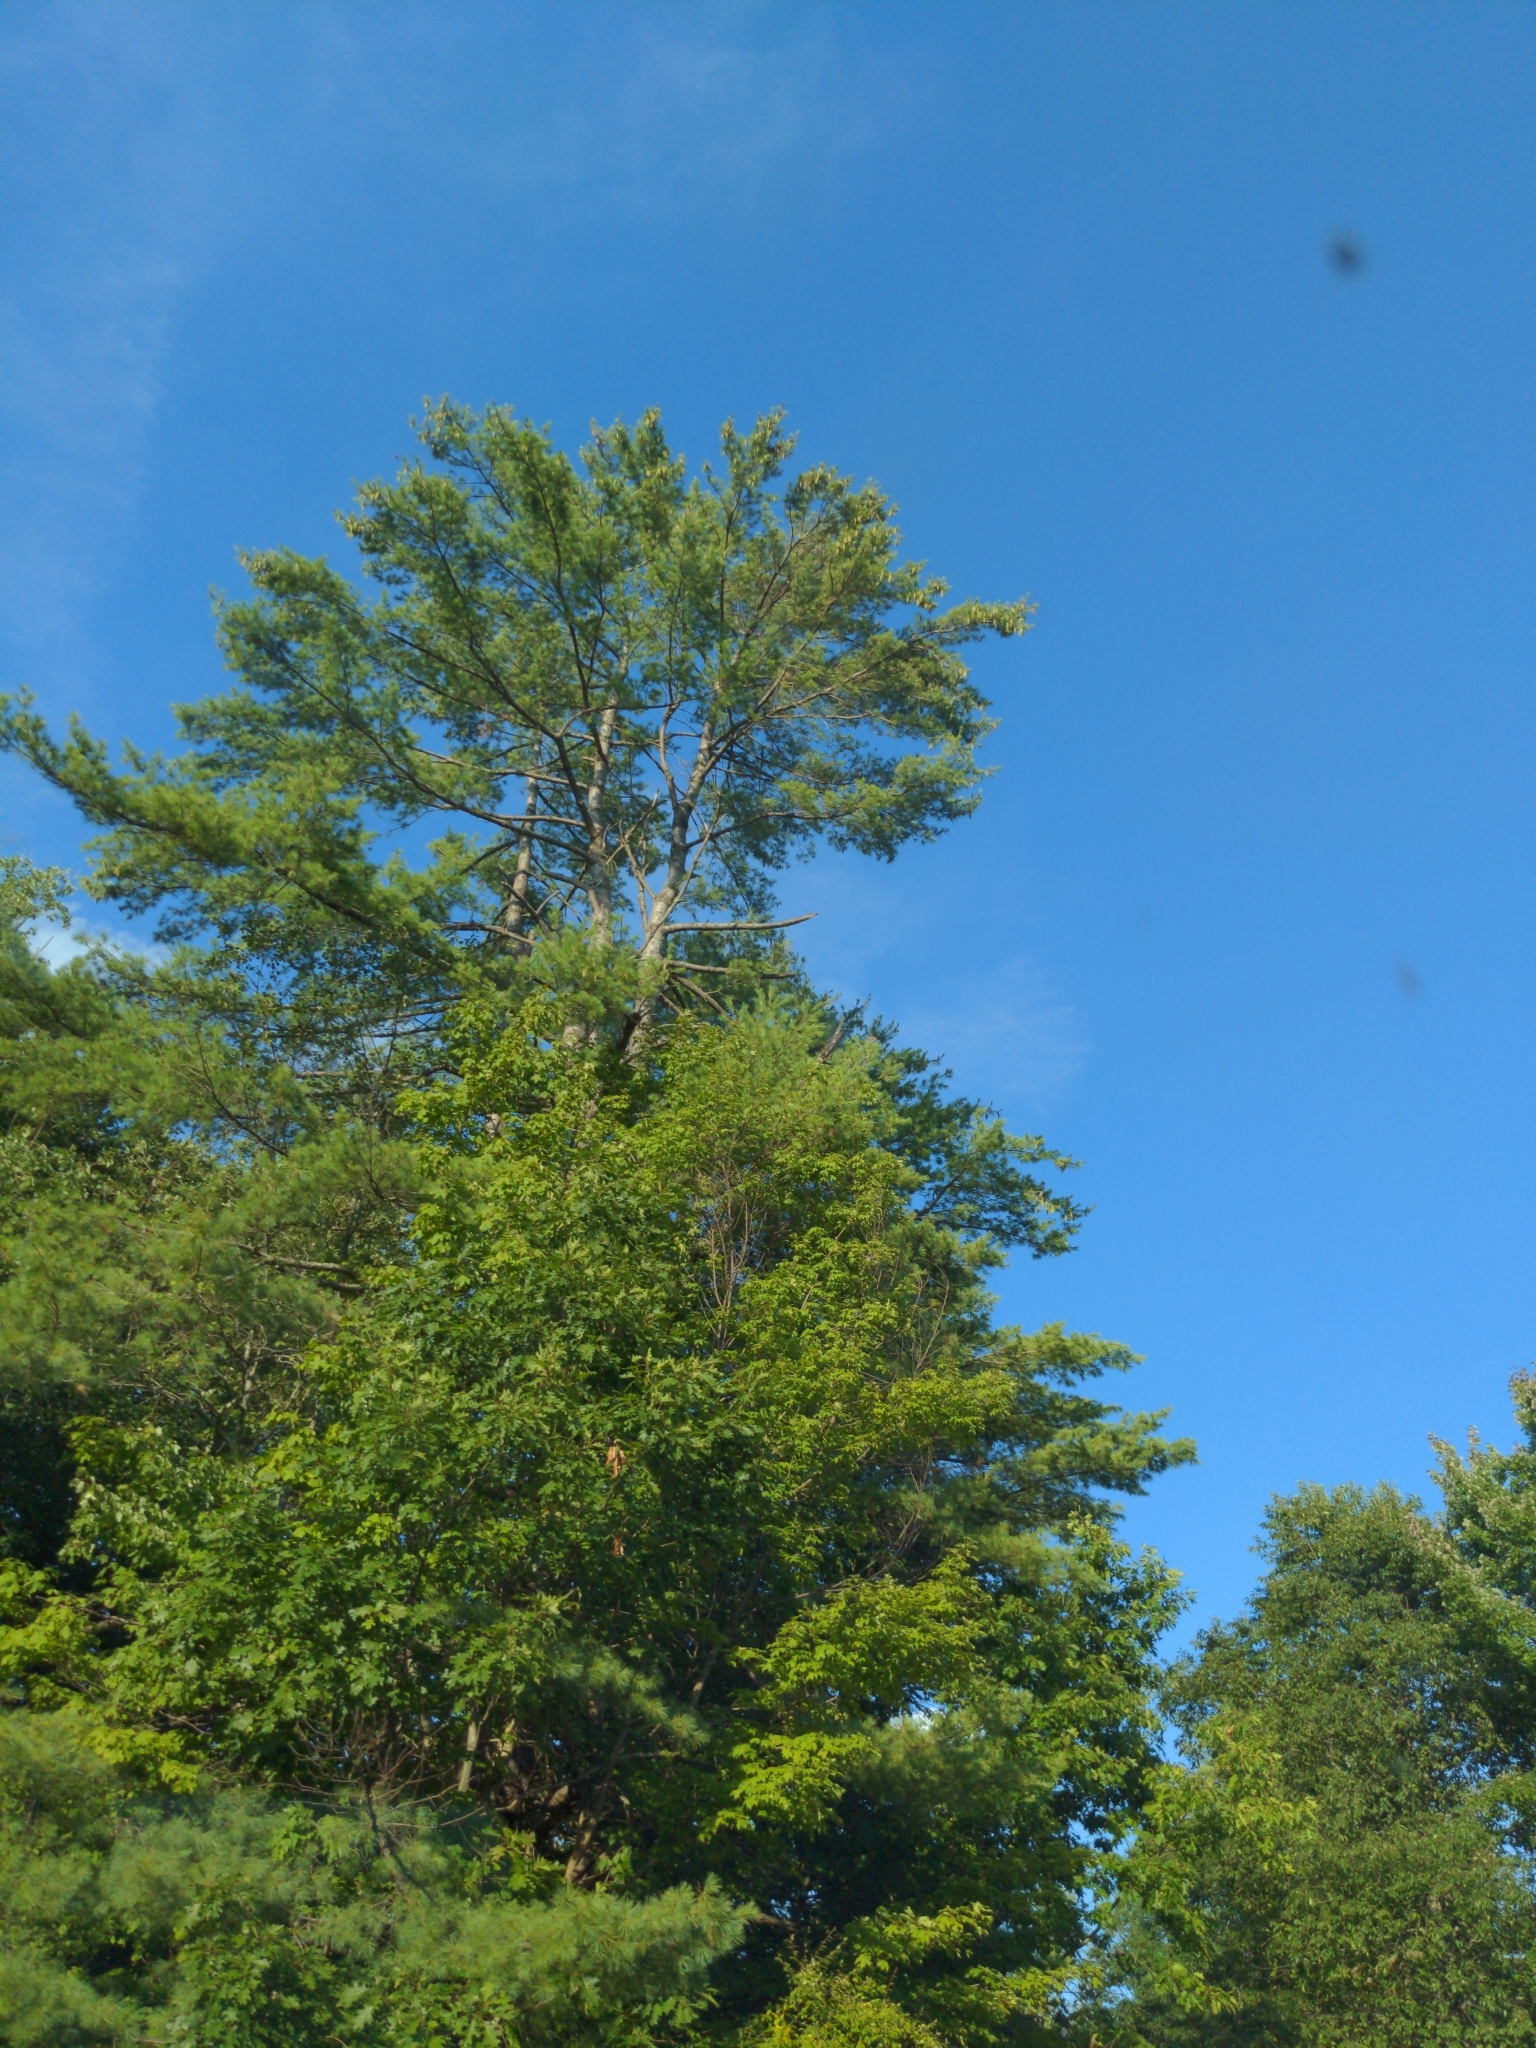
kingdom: Plantae
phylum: Tracheophyta
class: Pinopsida
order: Pinales
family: Pinaceae
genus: Pinus
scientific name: Pinus strobus
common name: Weymouth pine
